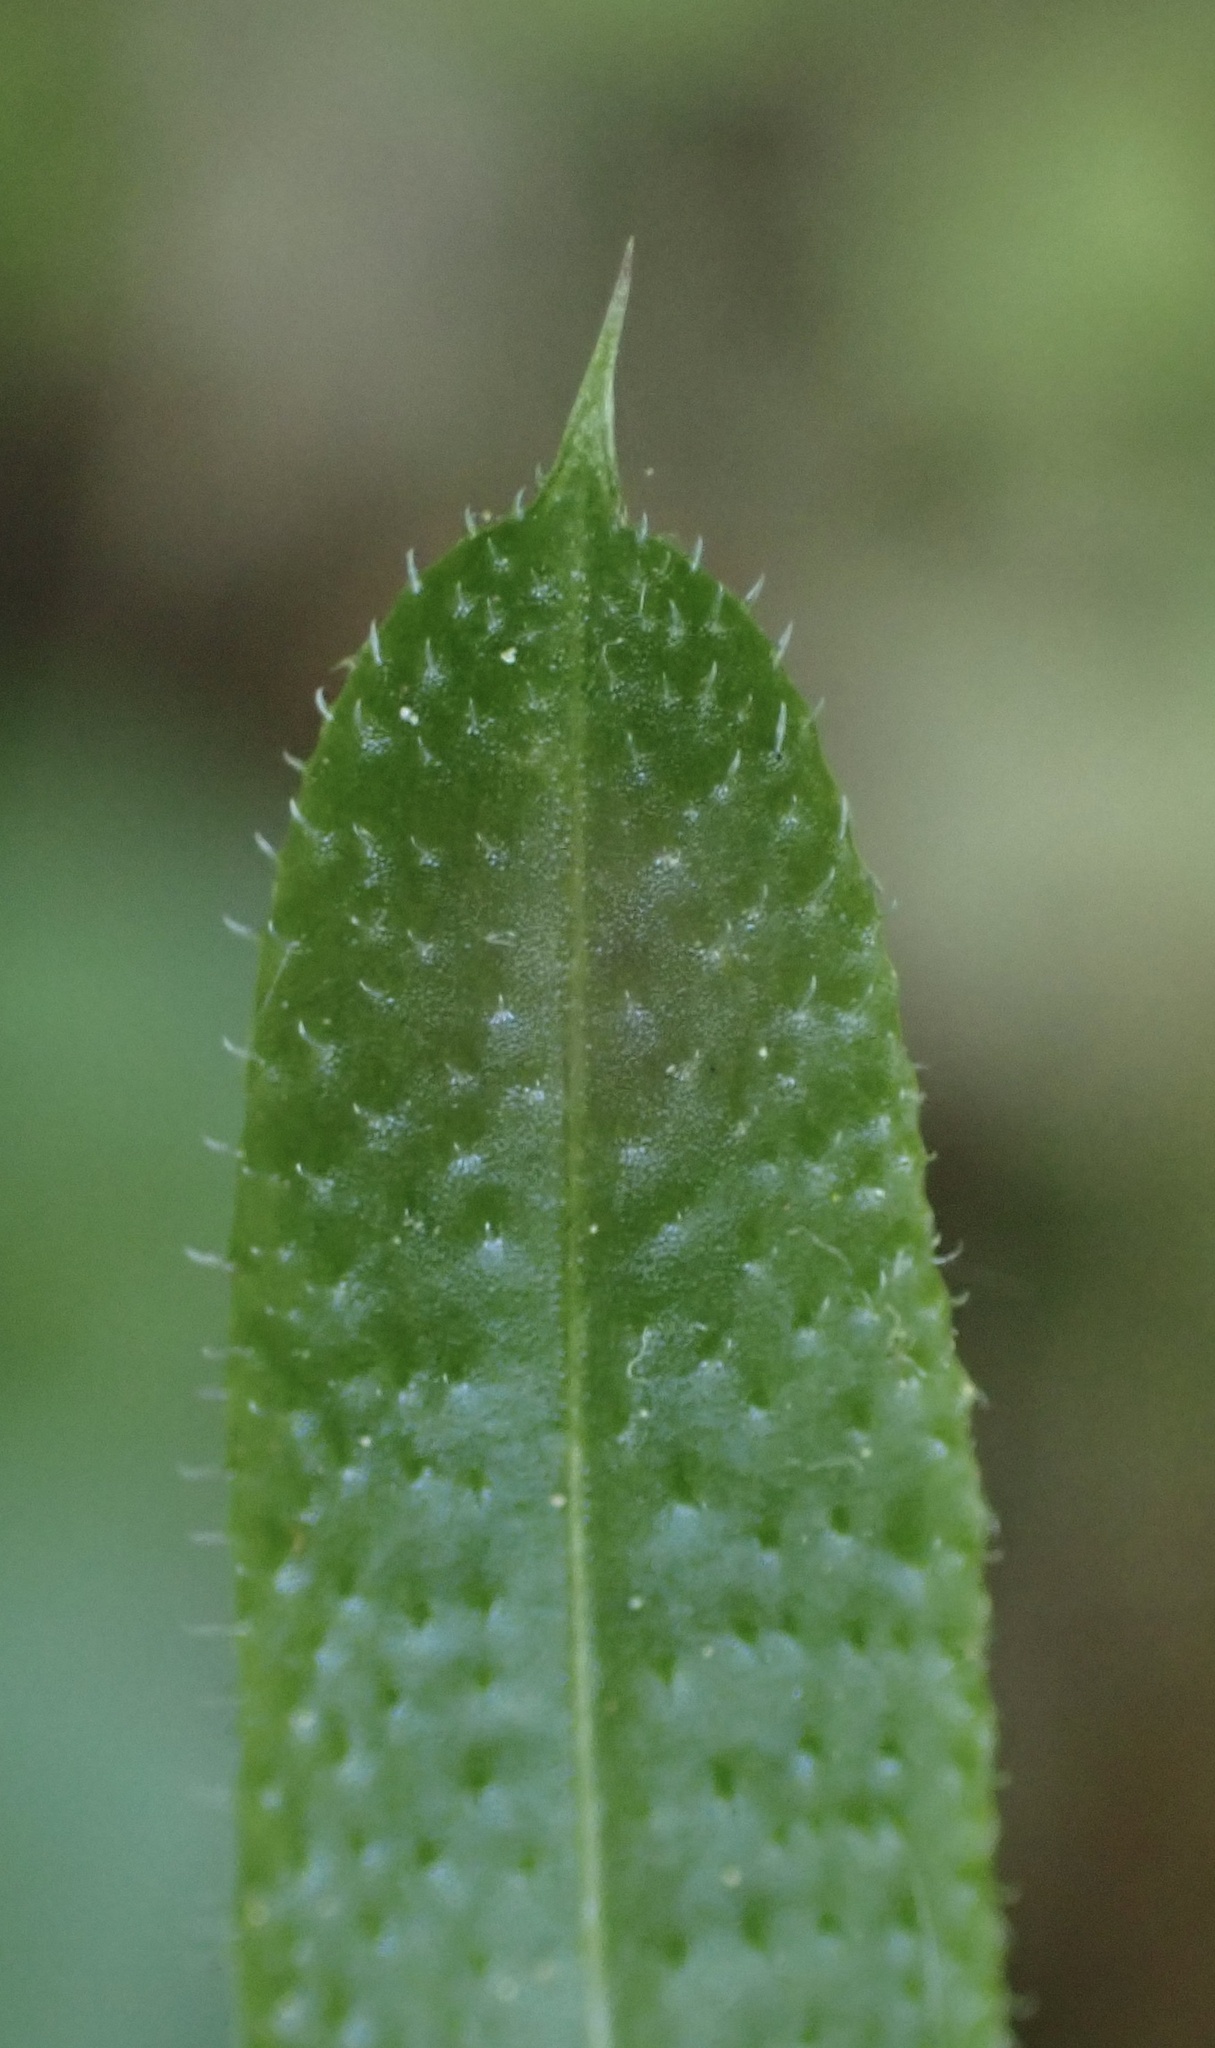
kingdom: Plantae
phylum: Tracheophyta
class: Magnoliopsida
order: Gentianales
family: Rubiaceae
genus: Galium
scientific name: Galium aparine
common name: Cleavers
